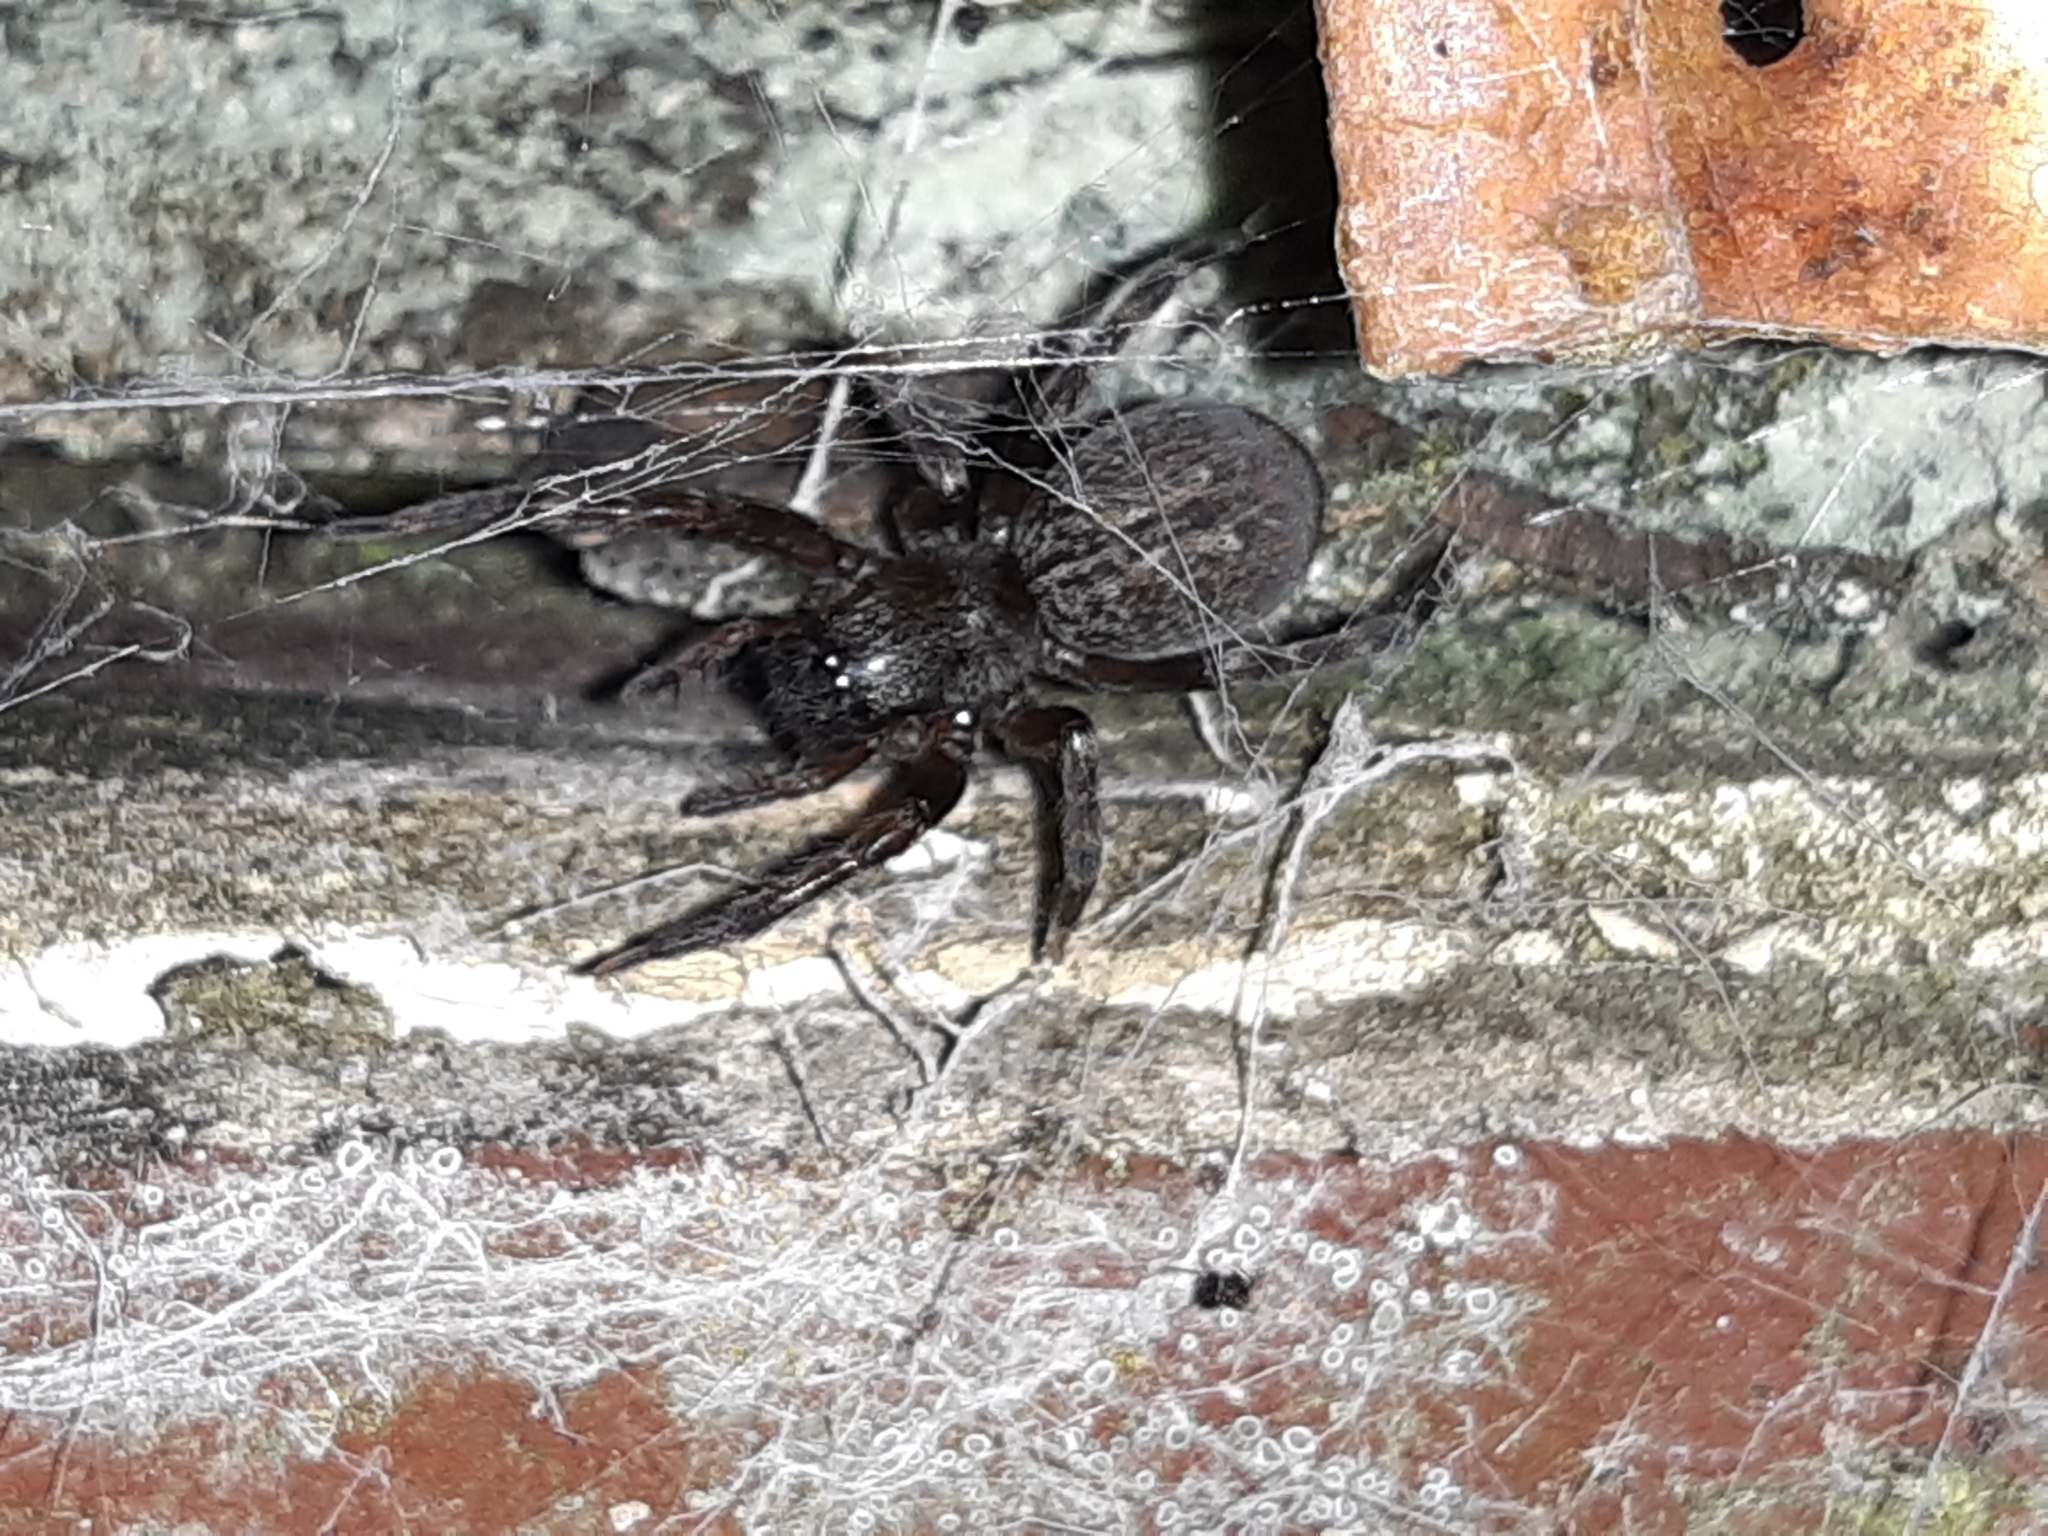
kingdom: Animalia
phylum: Arthropoda
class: Arachnida
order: Araneae
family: Desidae
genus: Badumna
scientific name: Badumna longinqua
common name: Gray house spider
